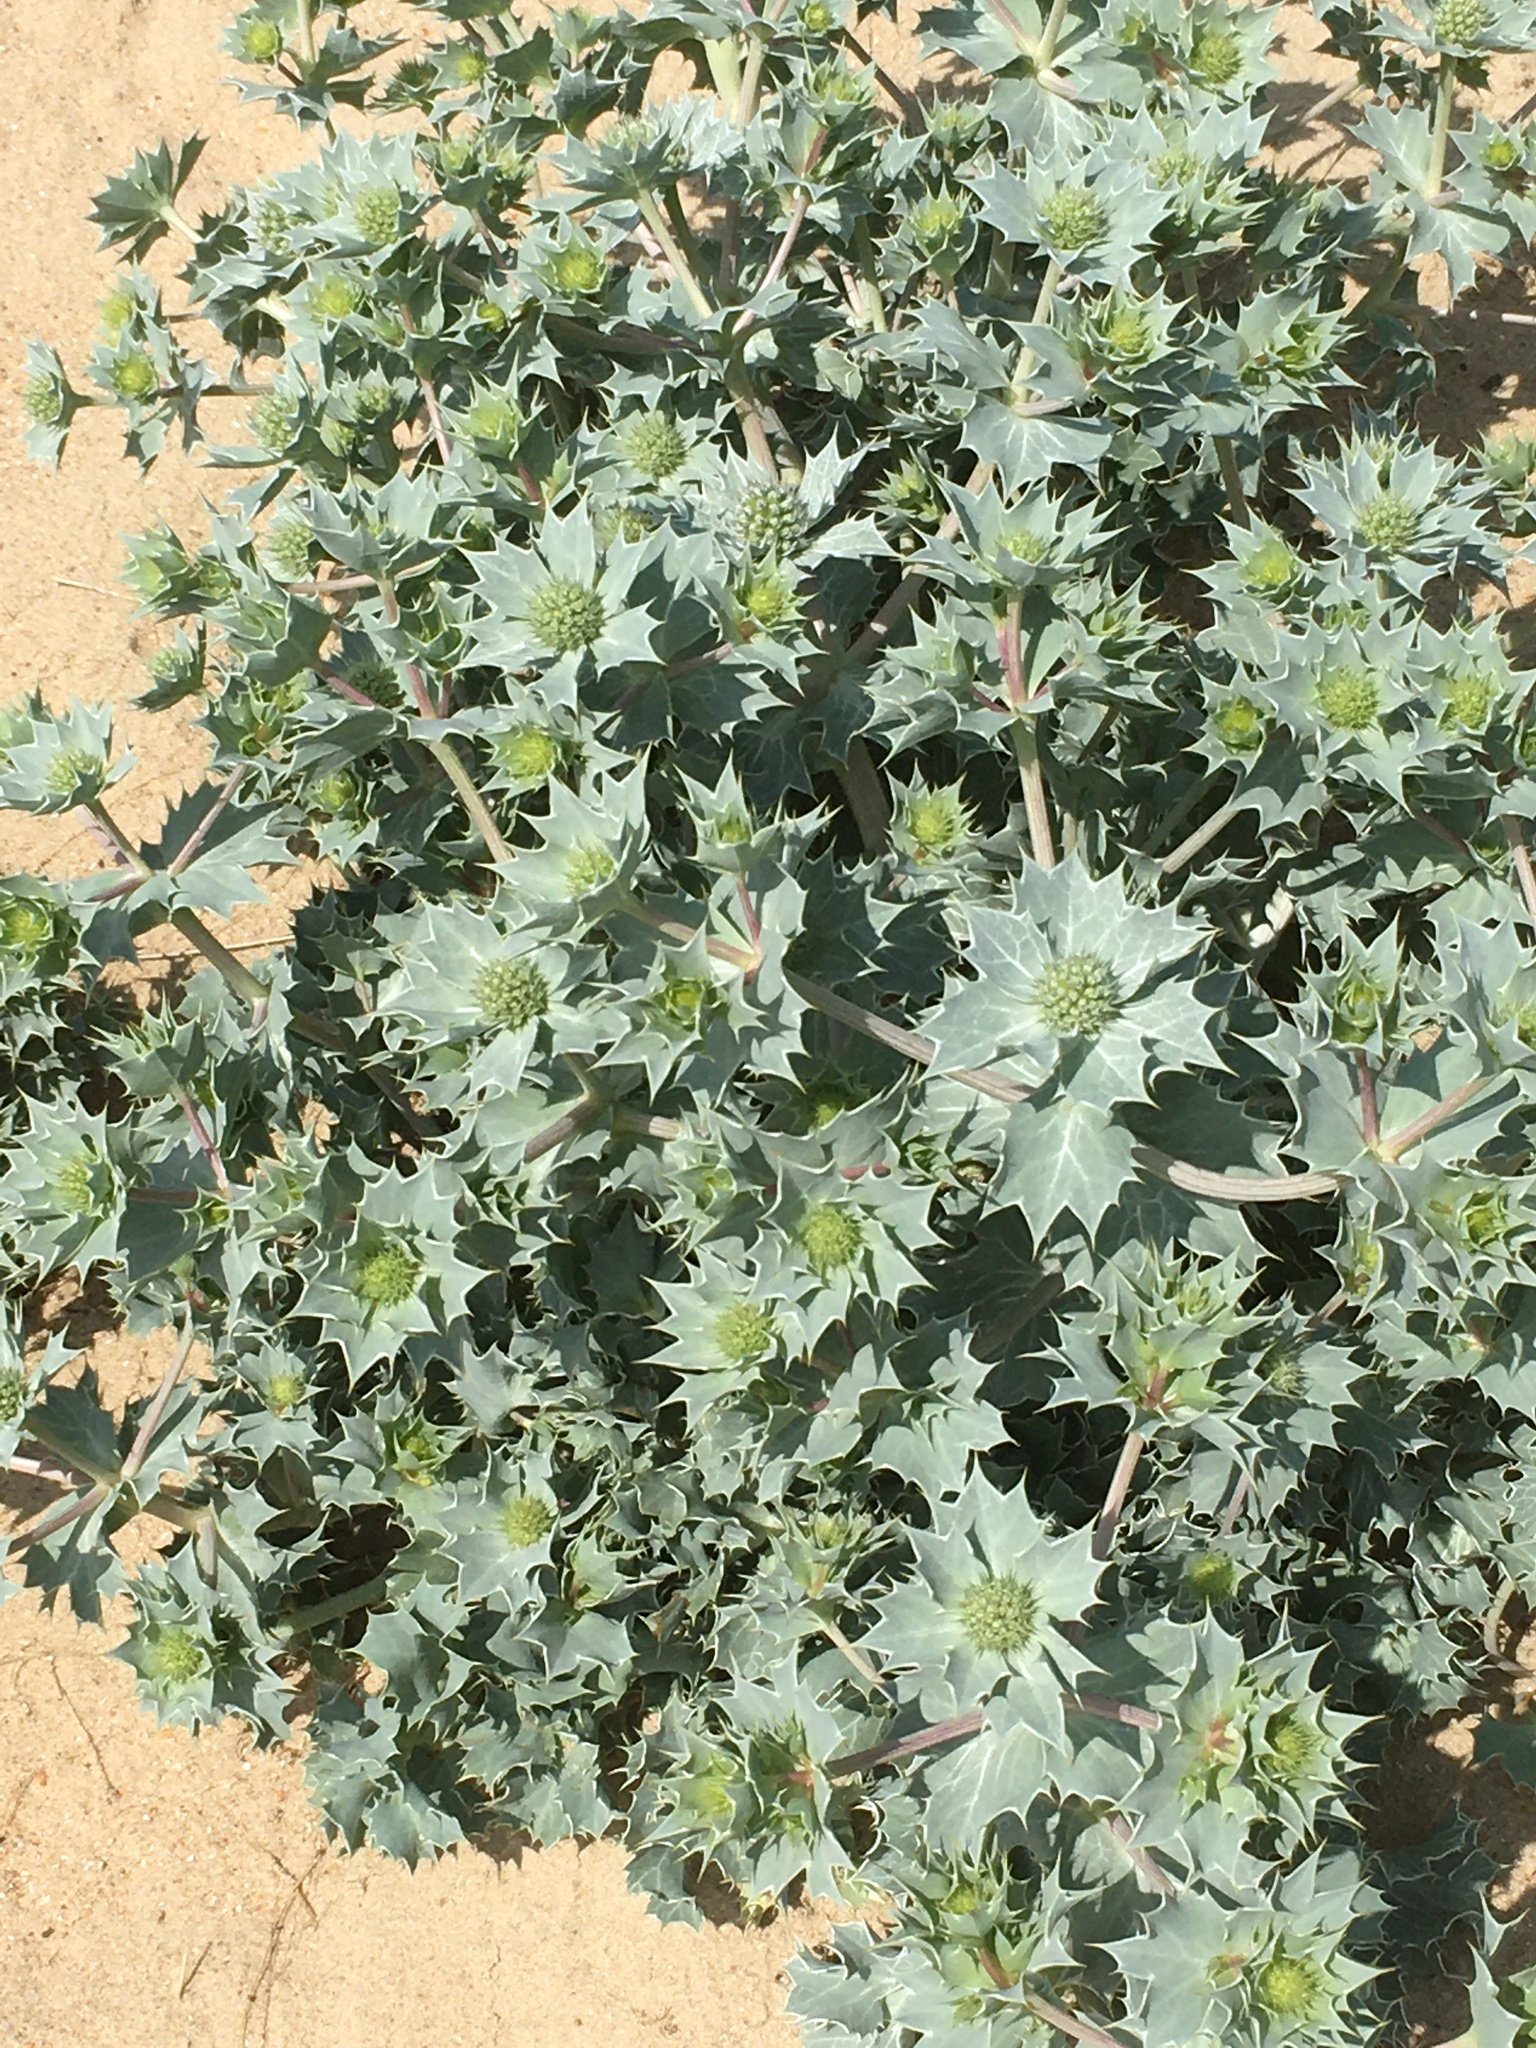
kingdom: Plantae
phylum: Tracheophyta
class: Magnoliopsida
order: Apiales
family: Apiaceae
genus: Eryngium
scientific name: Eryngium maritimum
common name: Sea-holly
